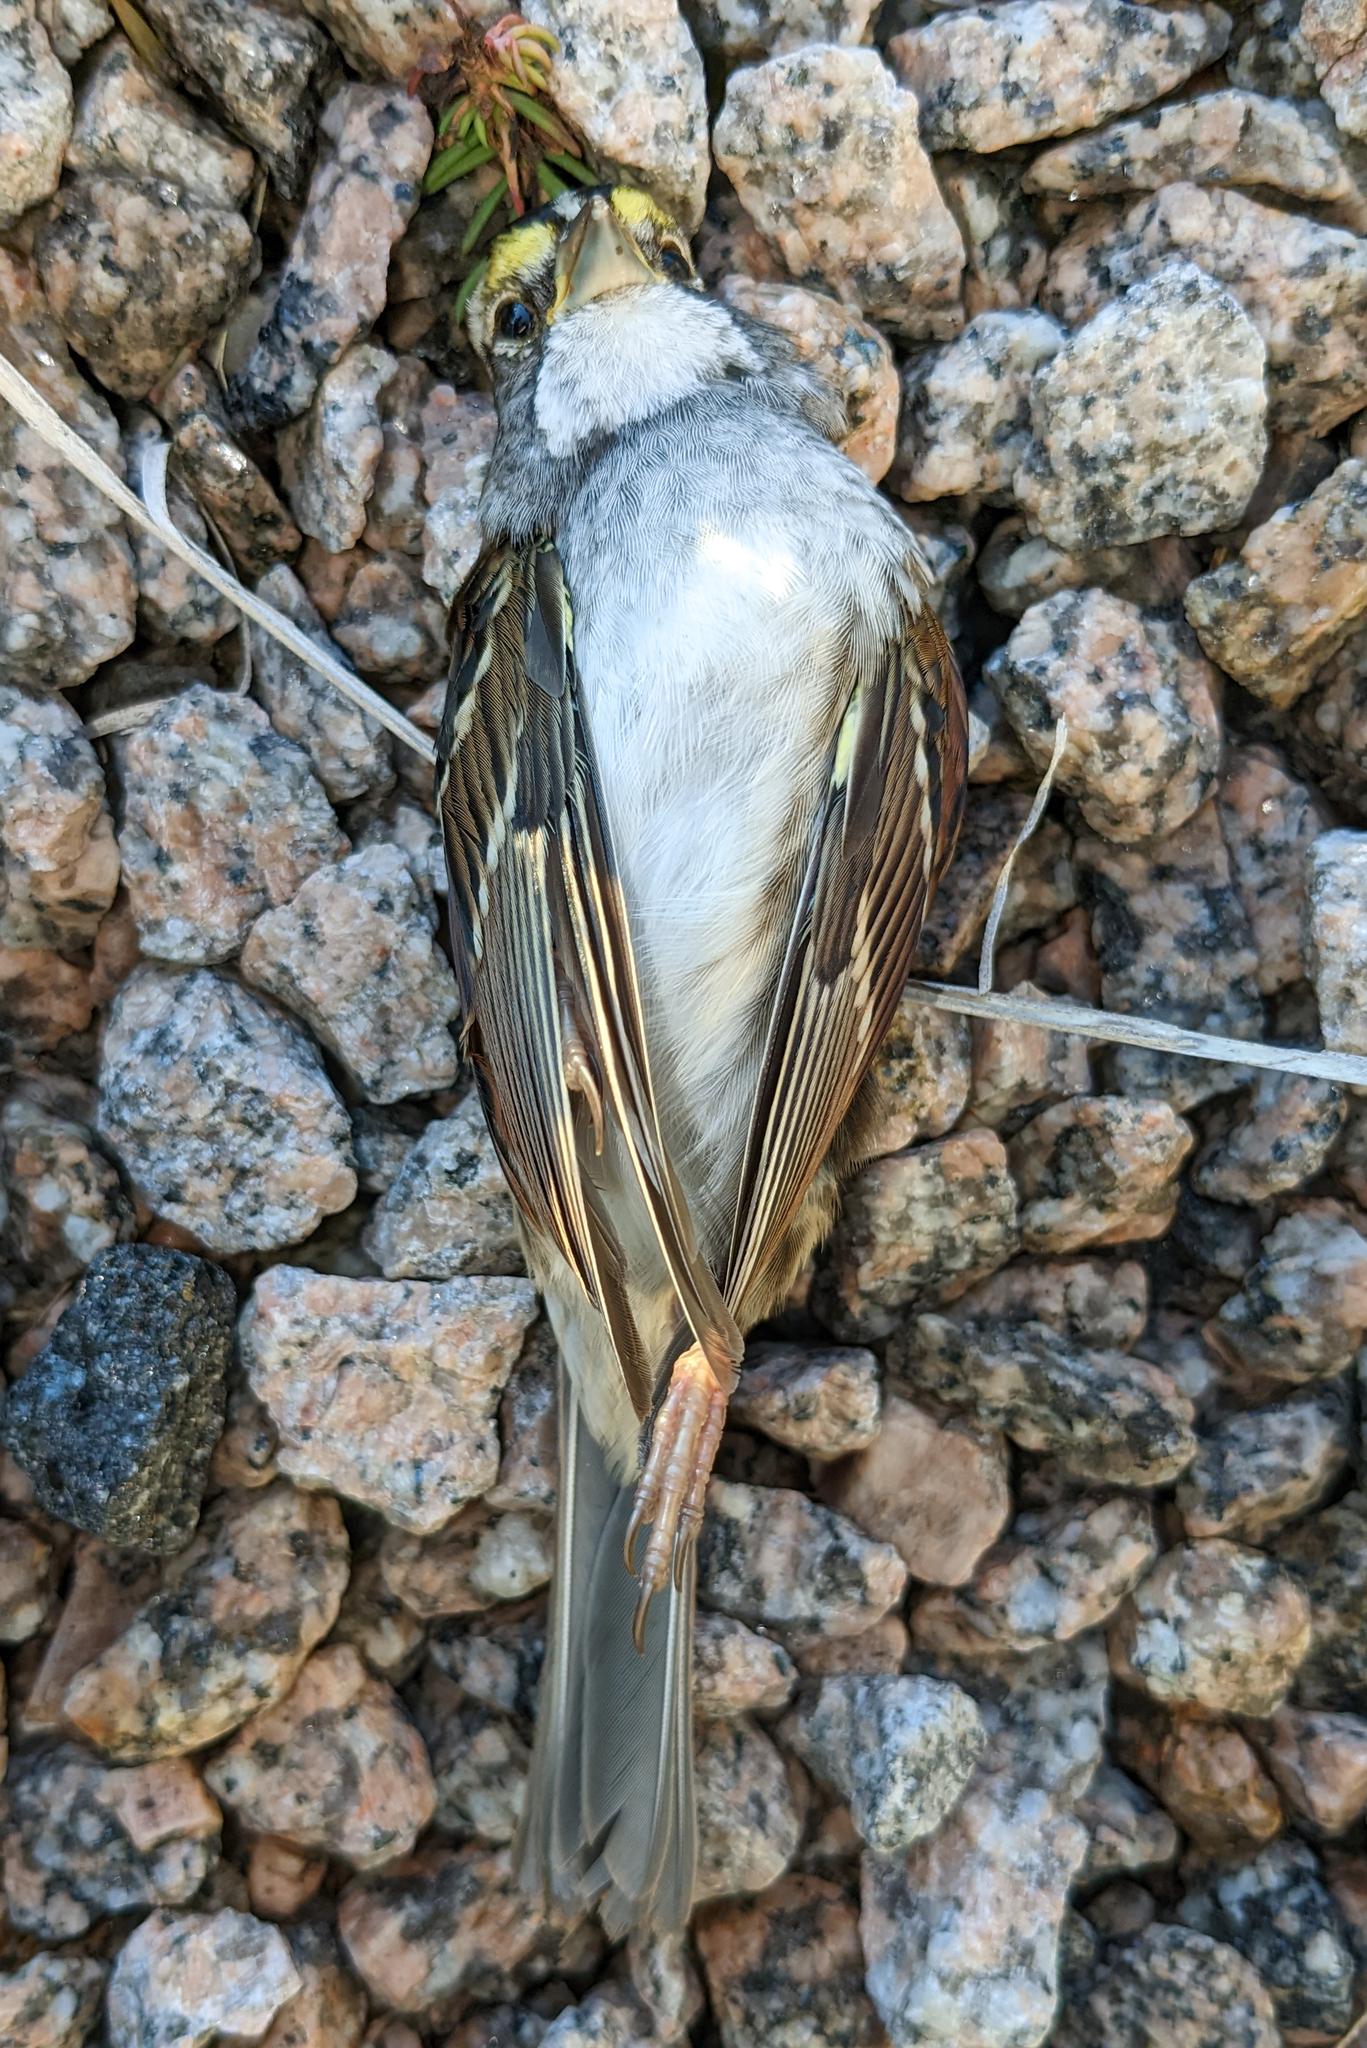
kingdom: Animalia
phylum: Chordata
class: Aves
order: Passeriformes
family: Passerellidae
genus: Zonotrichia
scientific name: Zonotrichia albicollis
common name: White-throated sparrow
